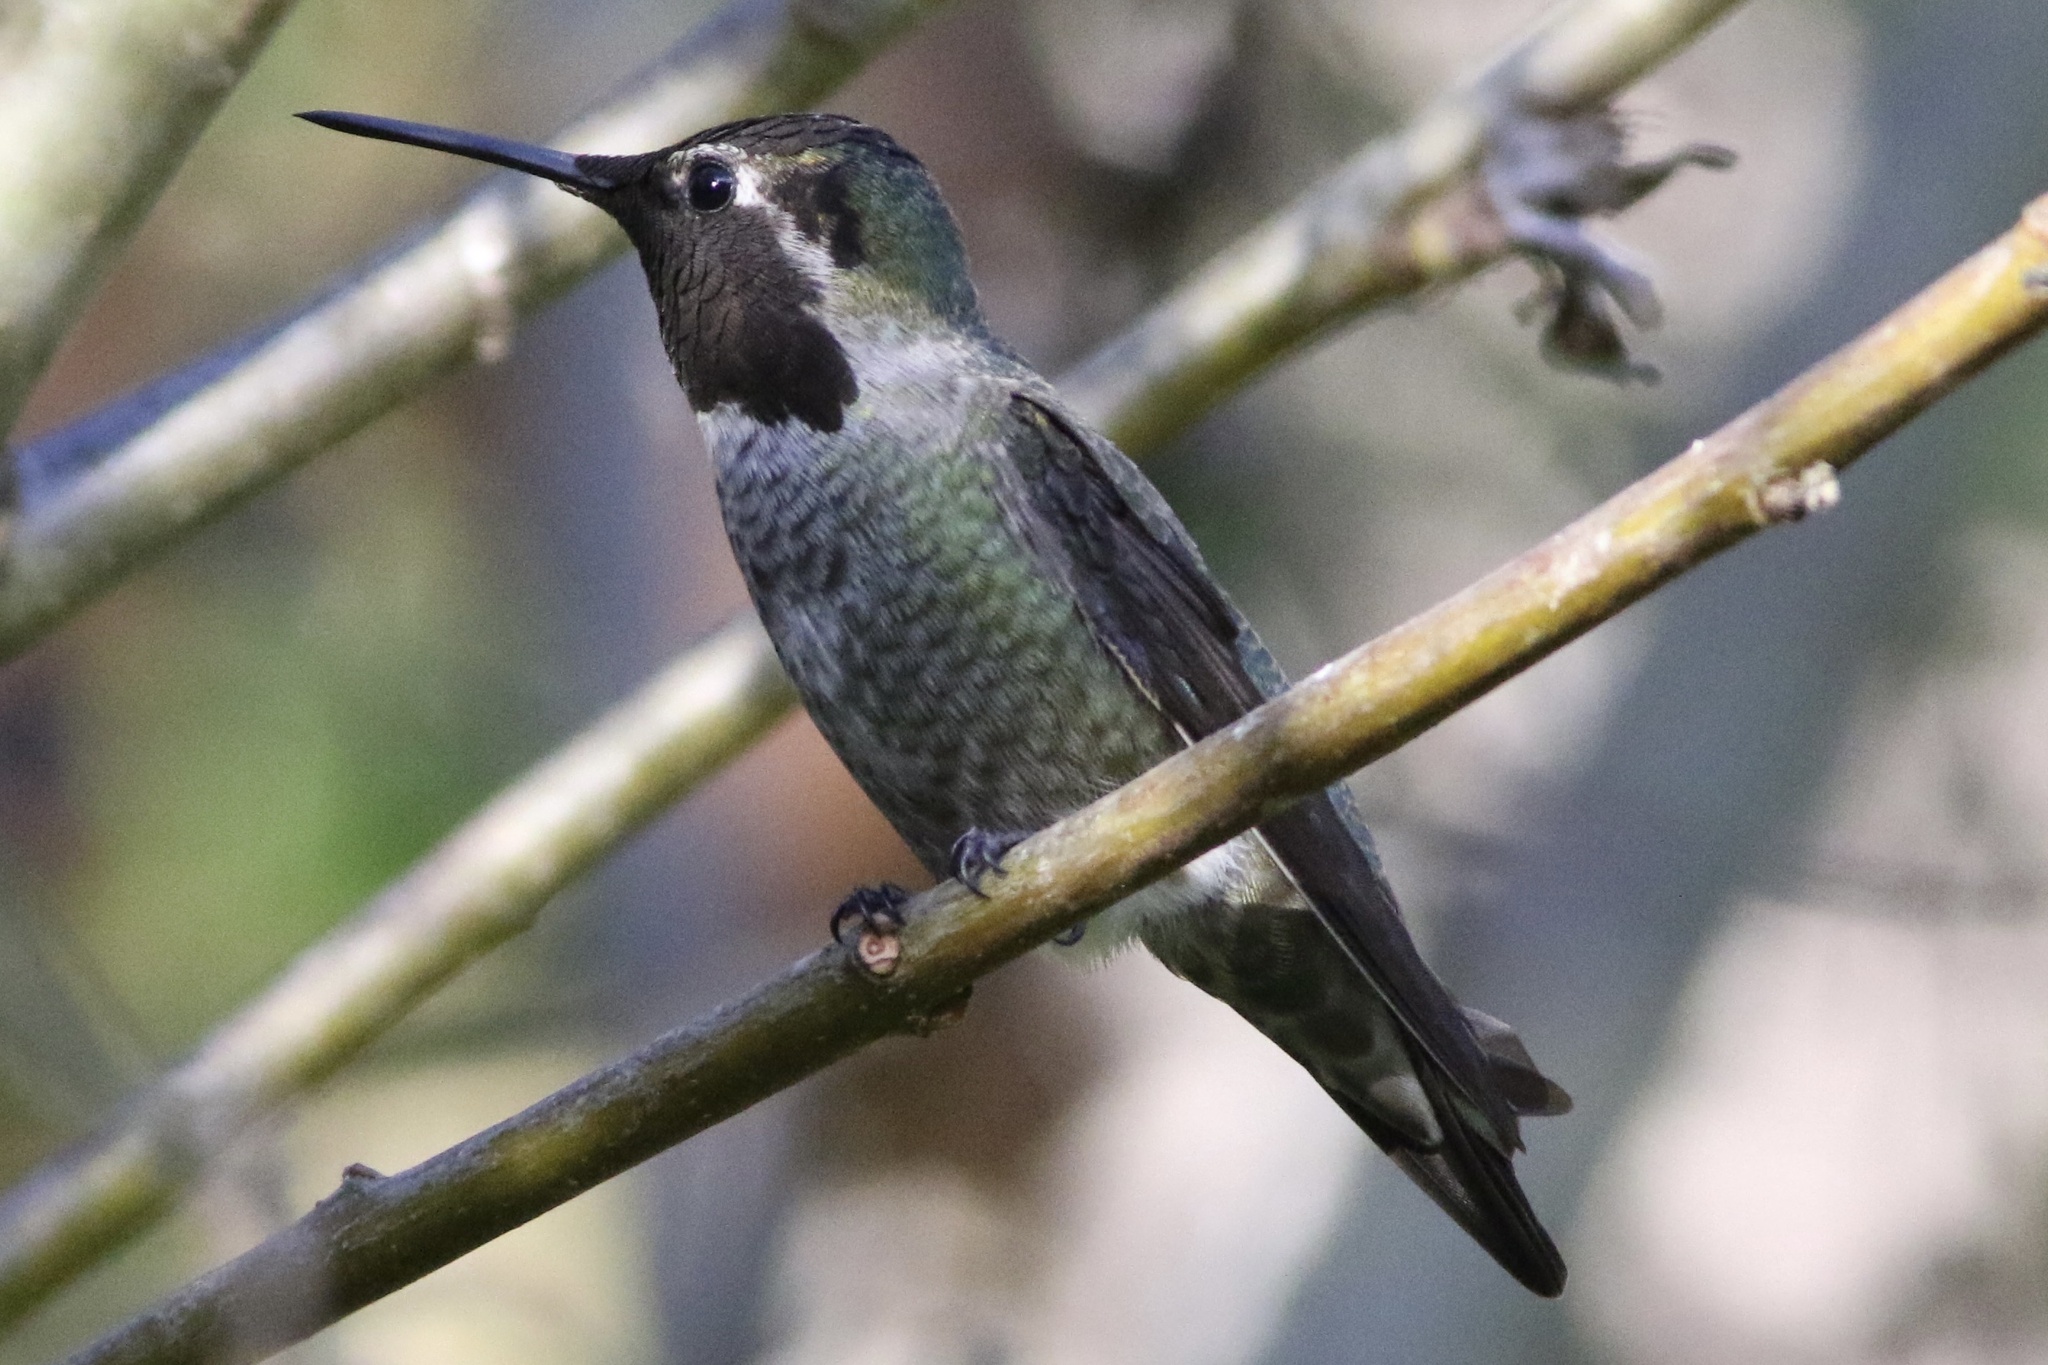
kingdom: Animalia
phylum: Chordata
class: Aves
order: Apodiformes
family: Trochilidae
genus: Calypte
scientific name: Calypte anna
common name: Anna's hummingbird
